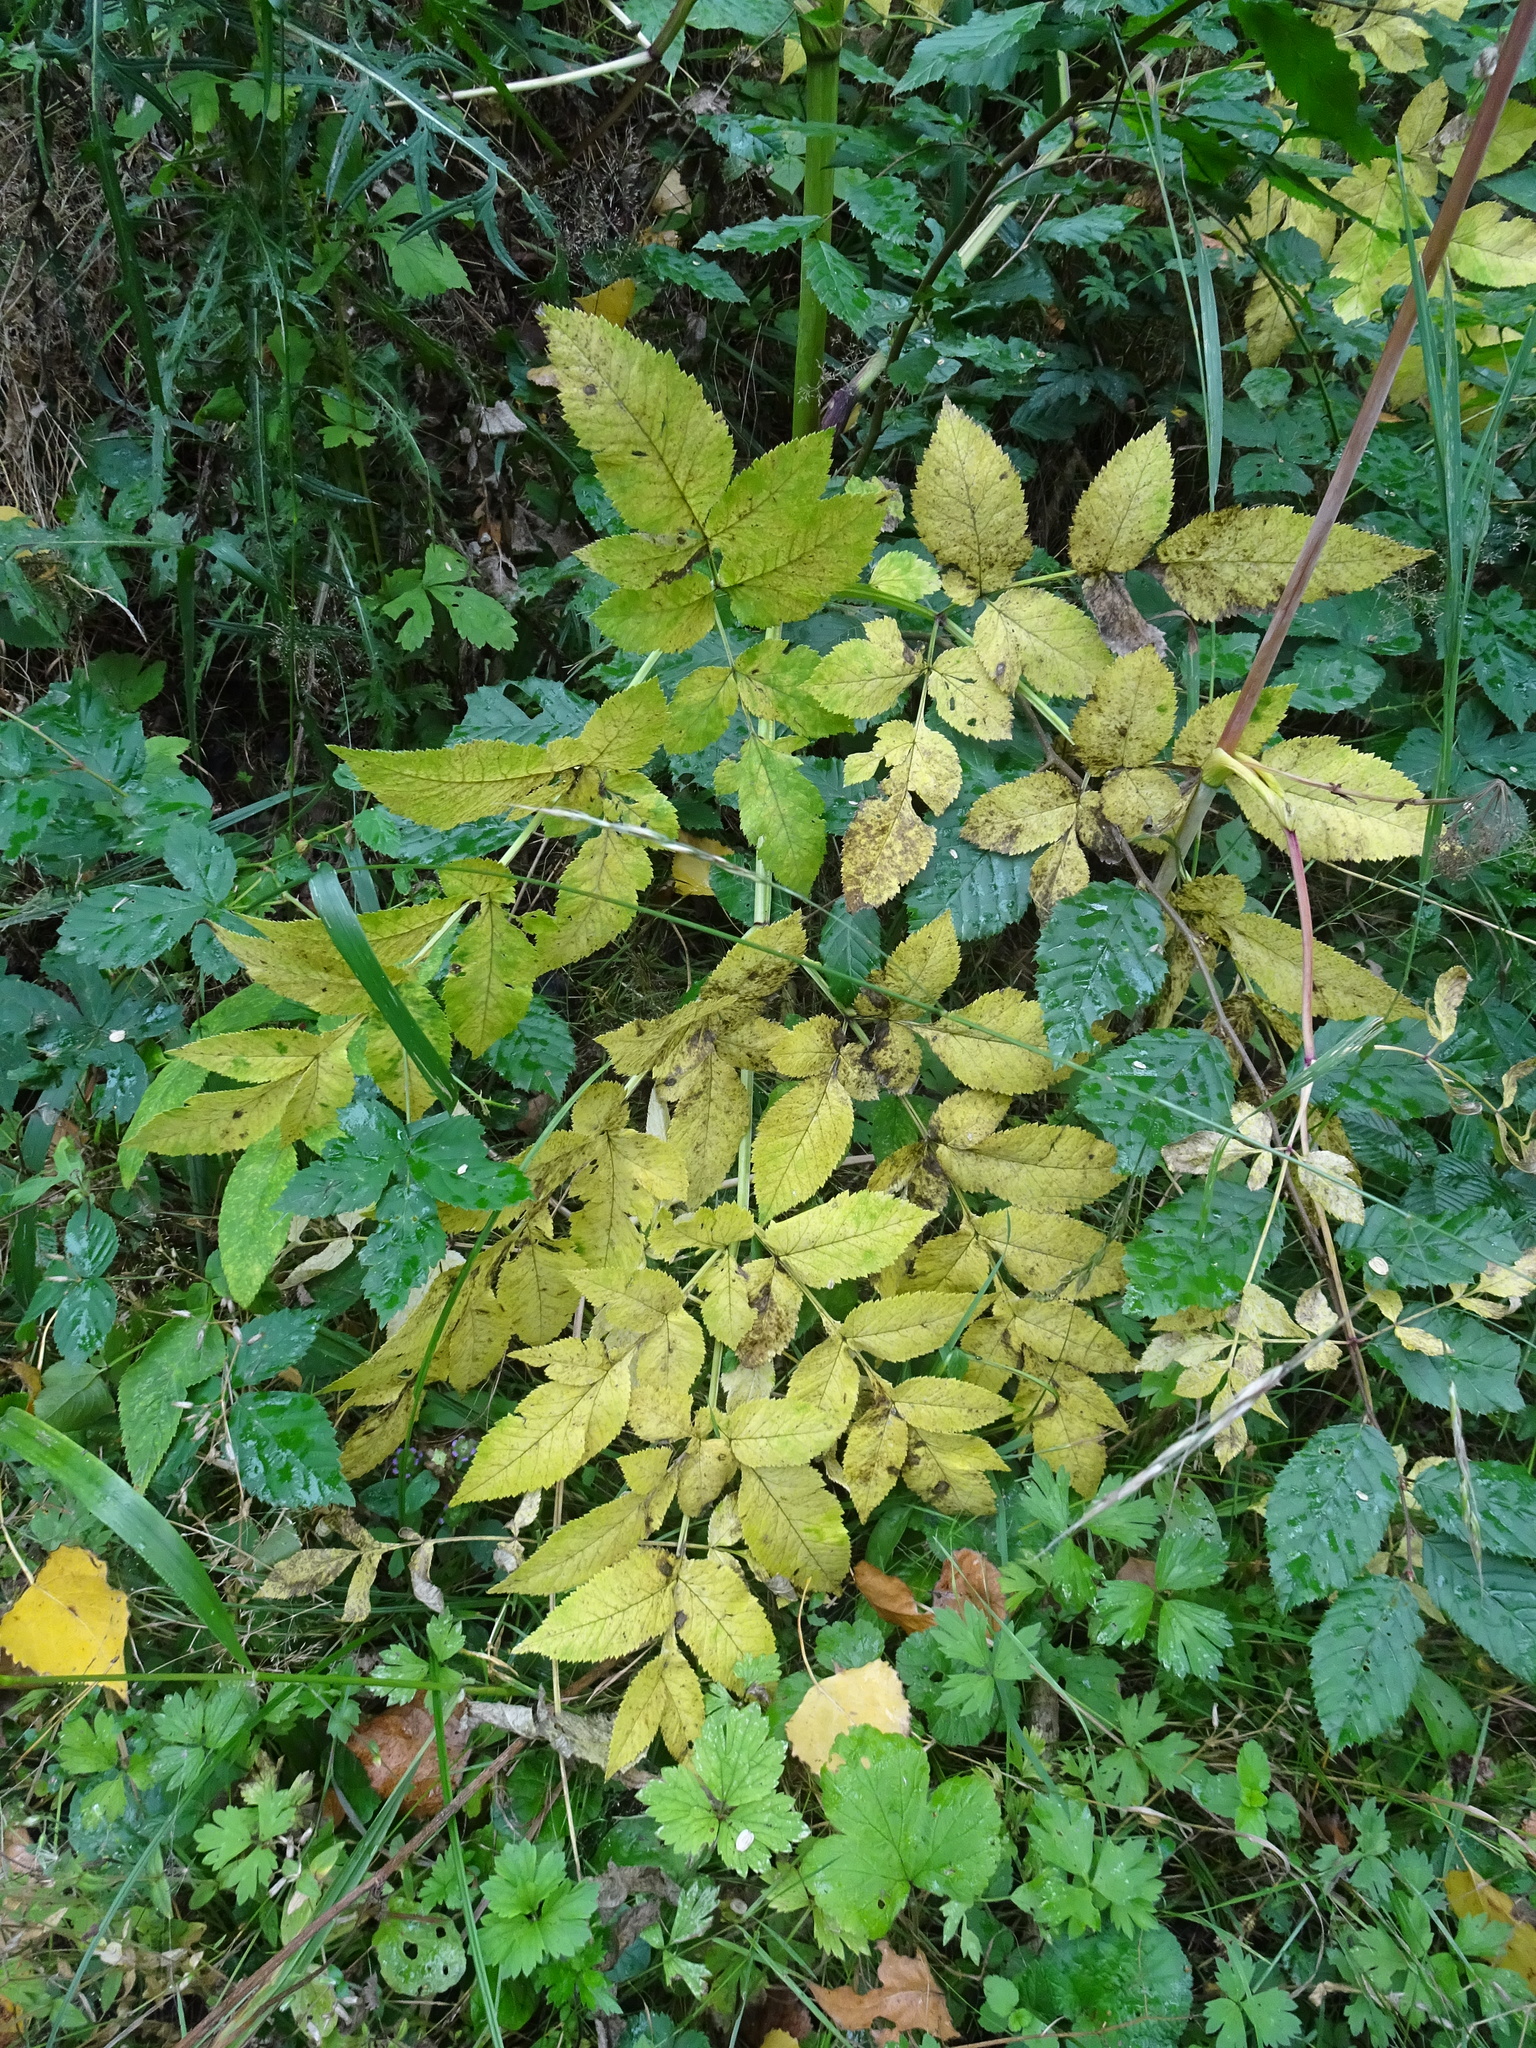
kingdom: Plantae
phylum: Tracheophyta
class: Magnoliopsida
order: Apiales
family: Apiaceae
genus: Angelica
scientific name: Angelica sylvestris
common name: Wild angelica
